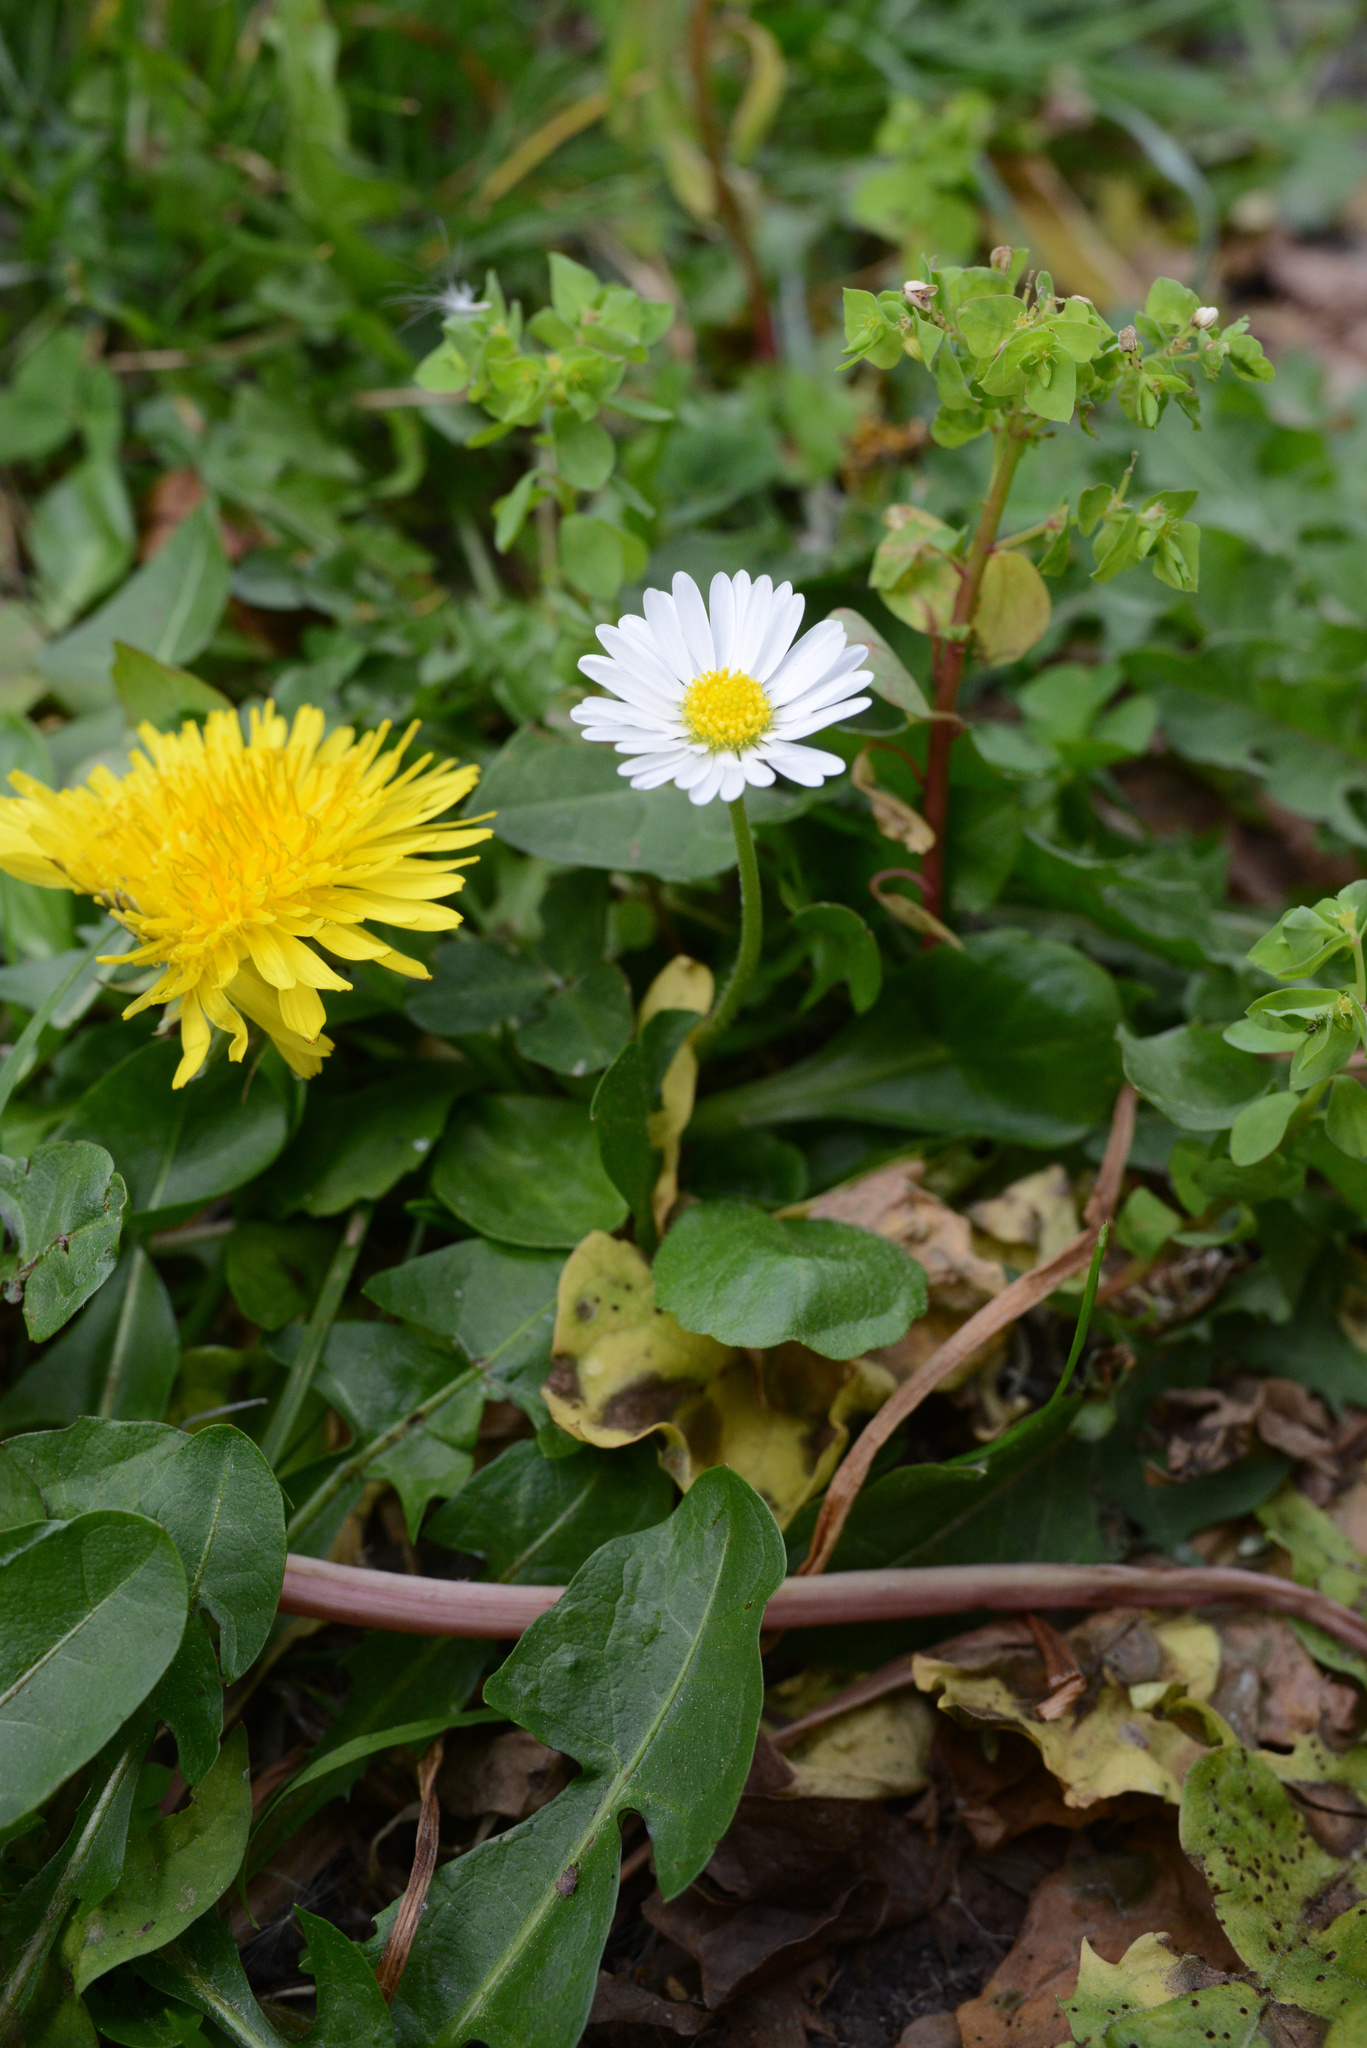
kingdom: Plantae
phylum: Tracheophyta
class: Magnoliopsida
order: Asterales
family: Asteraceae
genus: Bellis
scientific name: Bellis perennis
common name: Lawndaisy
